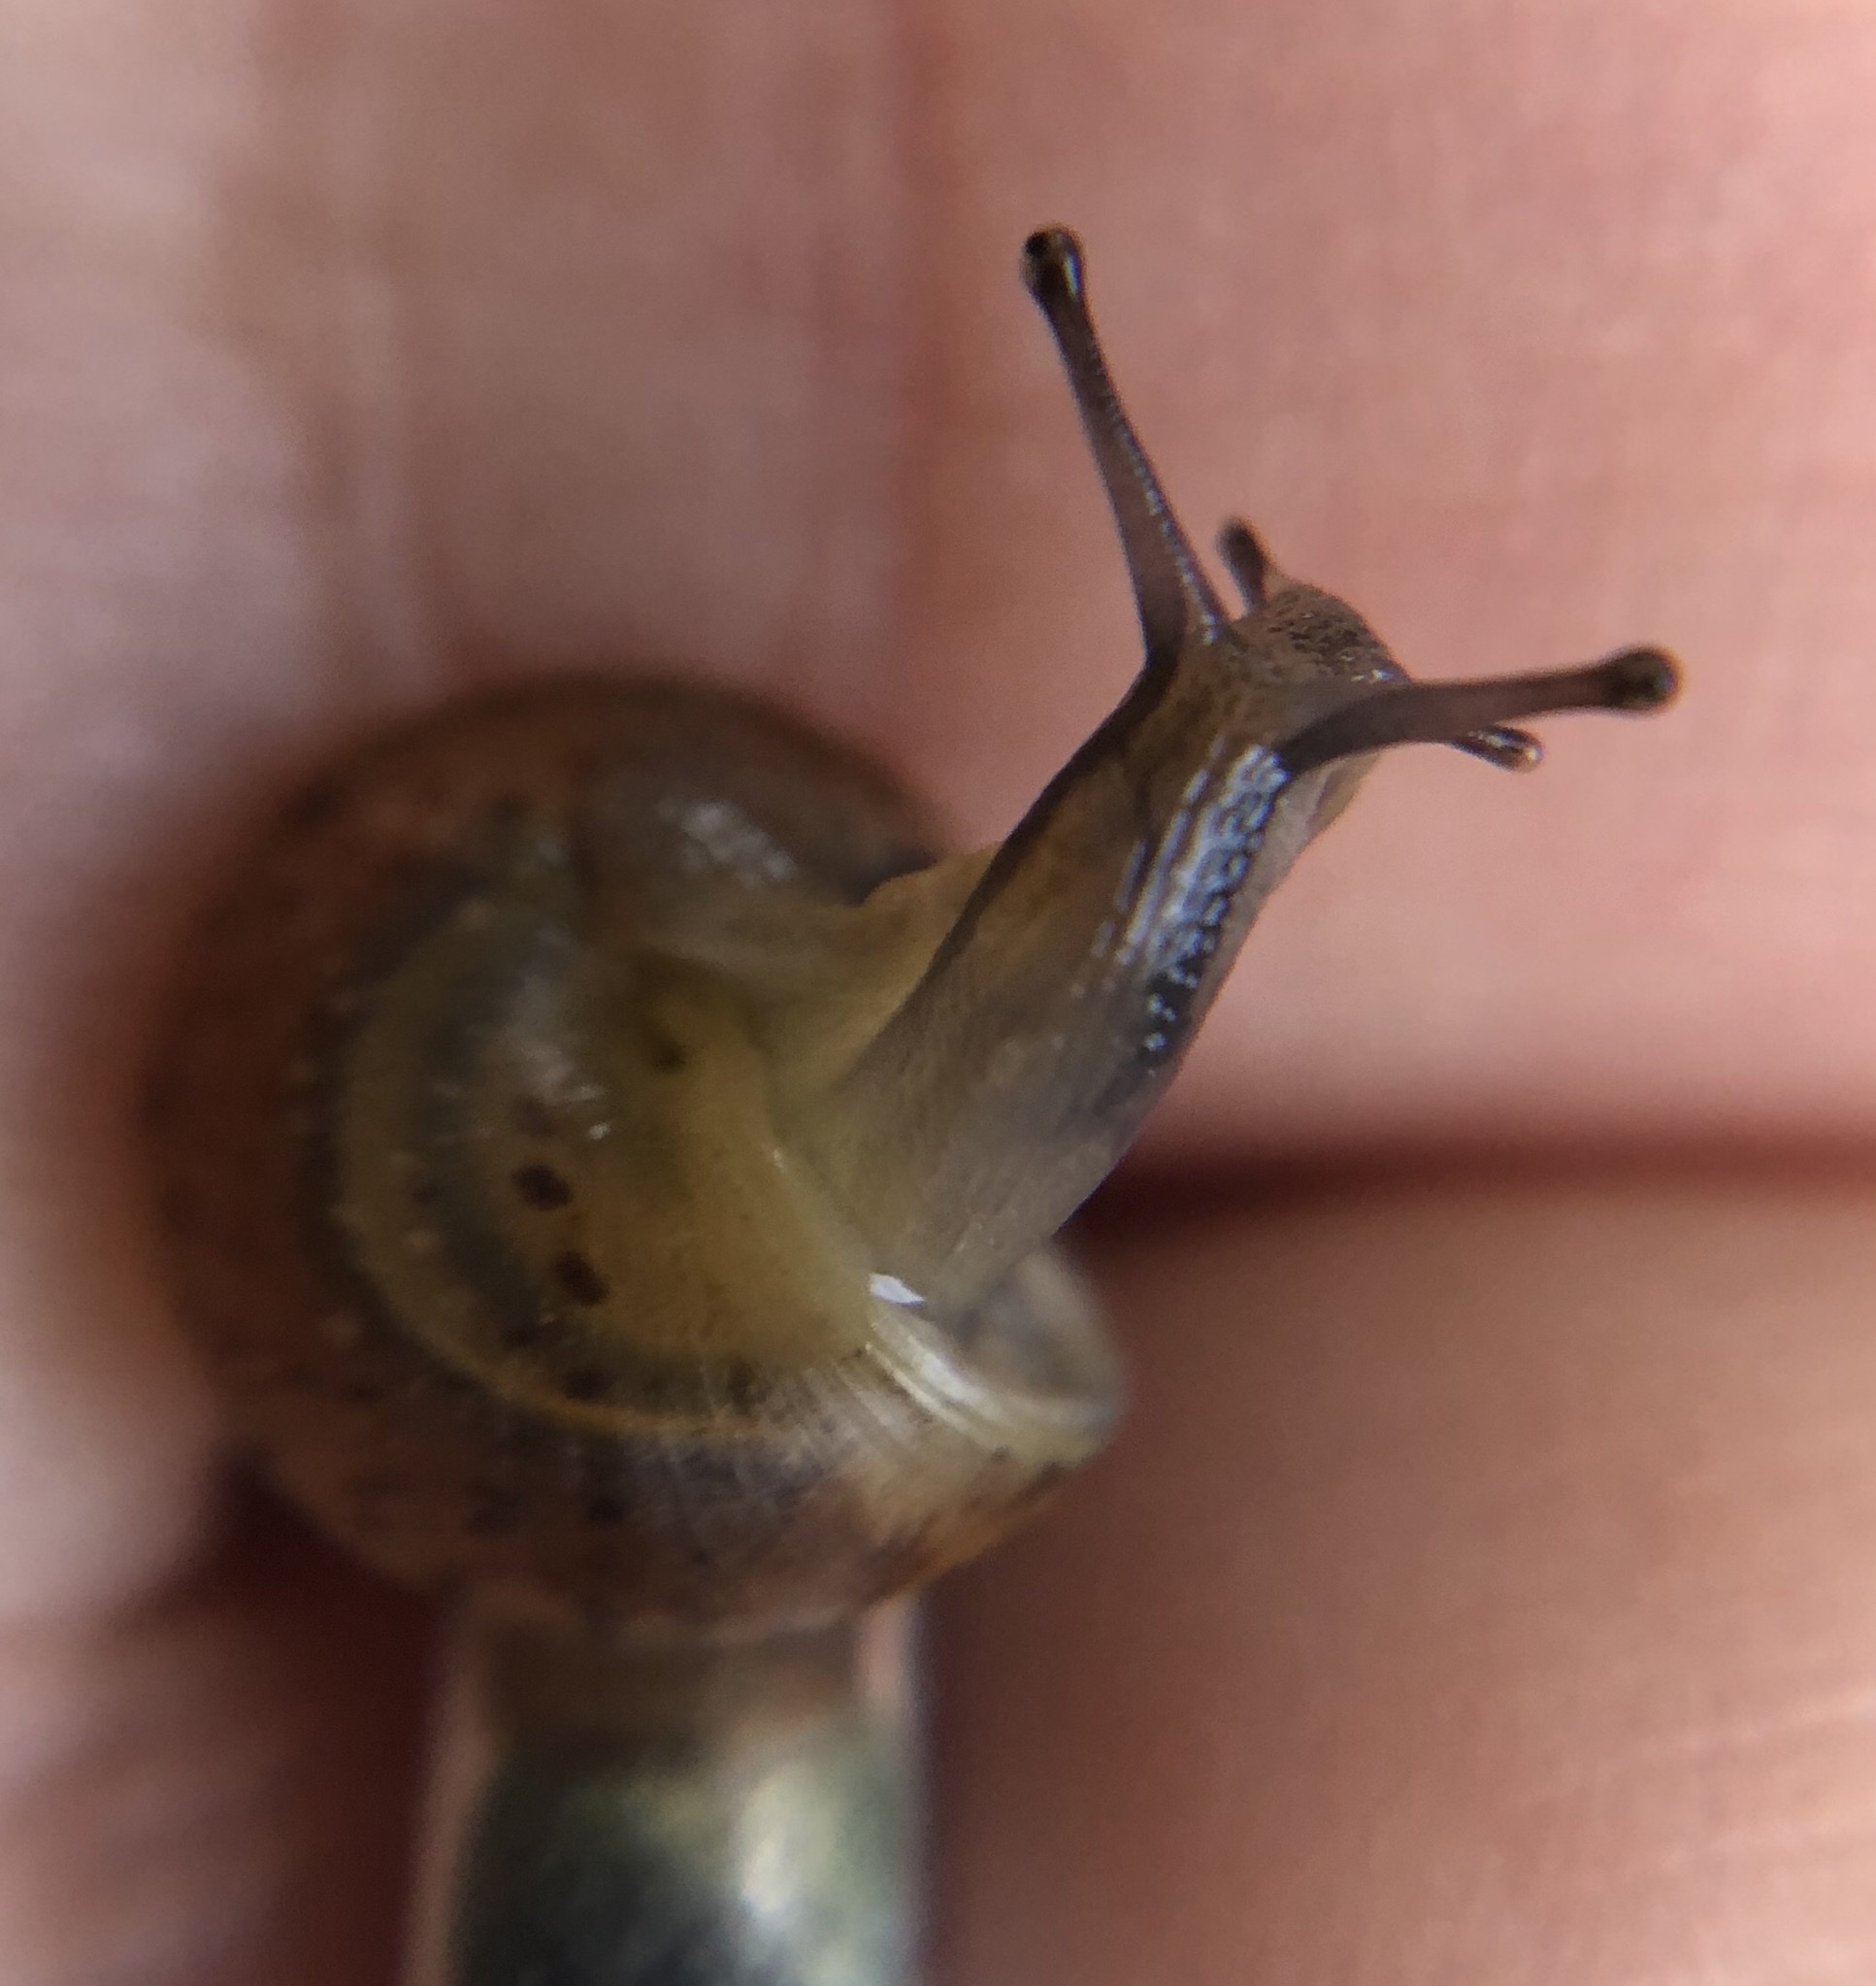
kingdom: Animalia
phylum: Mollusca
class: Gastropoda
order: Stylommatophora
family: Hygromiidae
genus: Hygromia
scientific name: Hygromia cinctella
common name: Girdled snail
